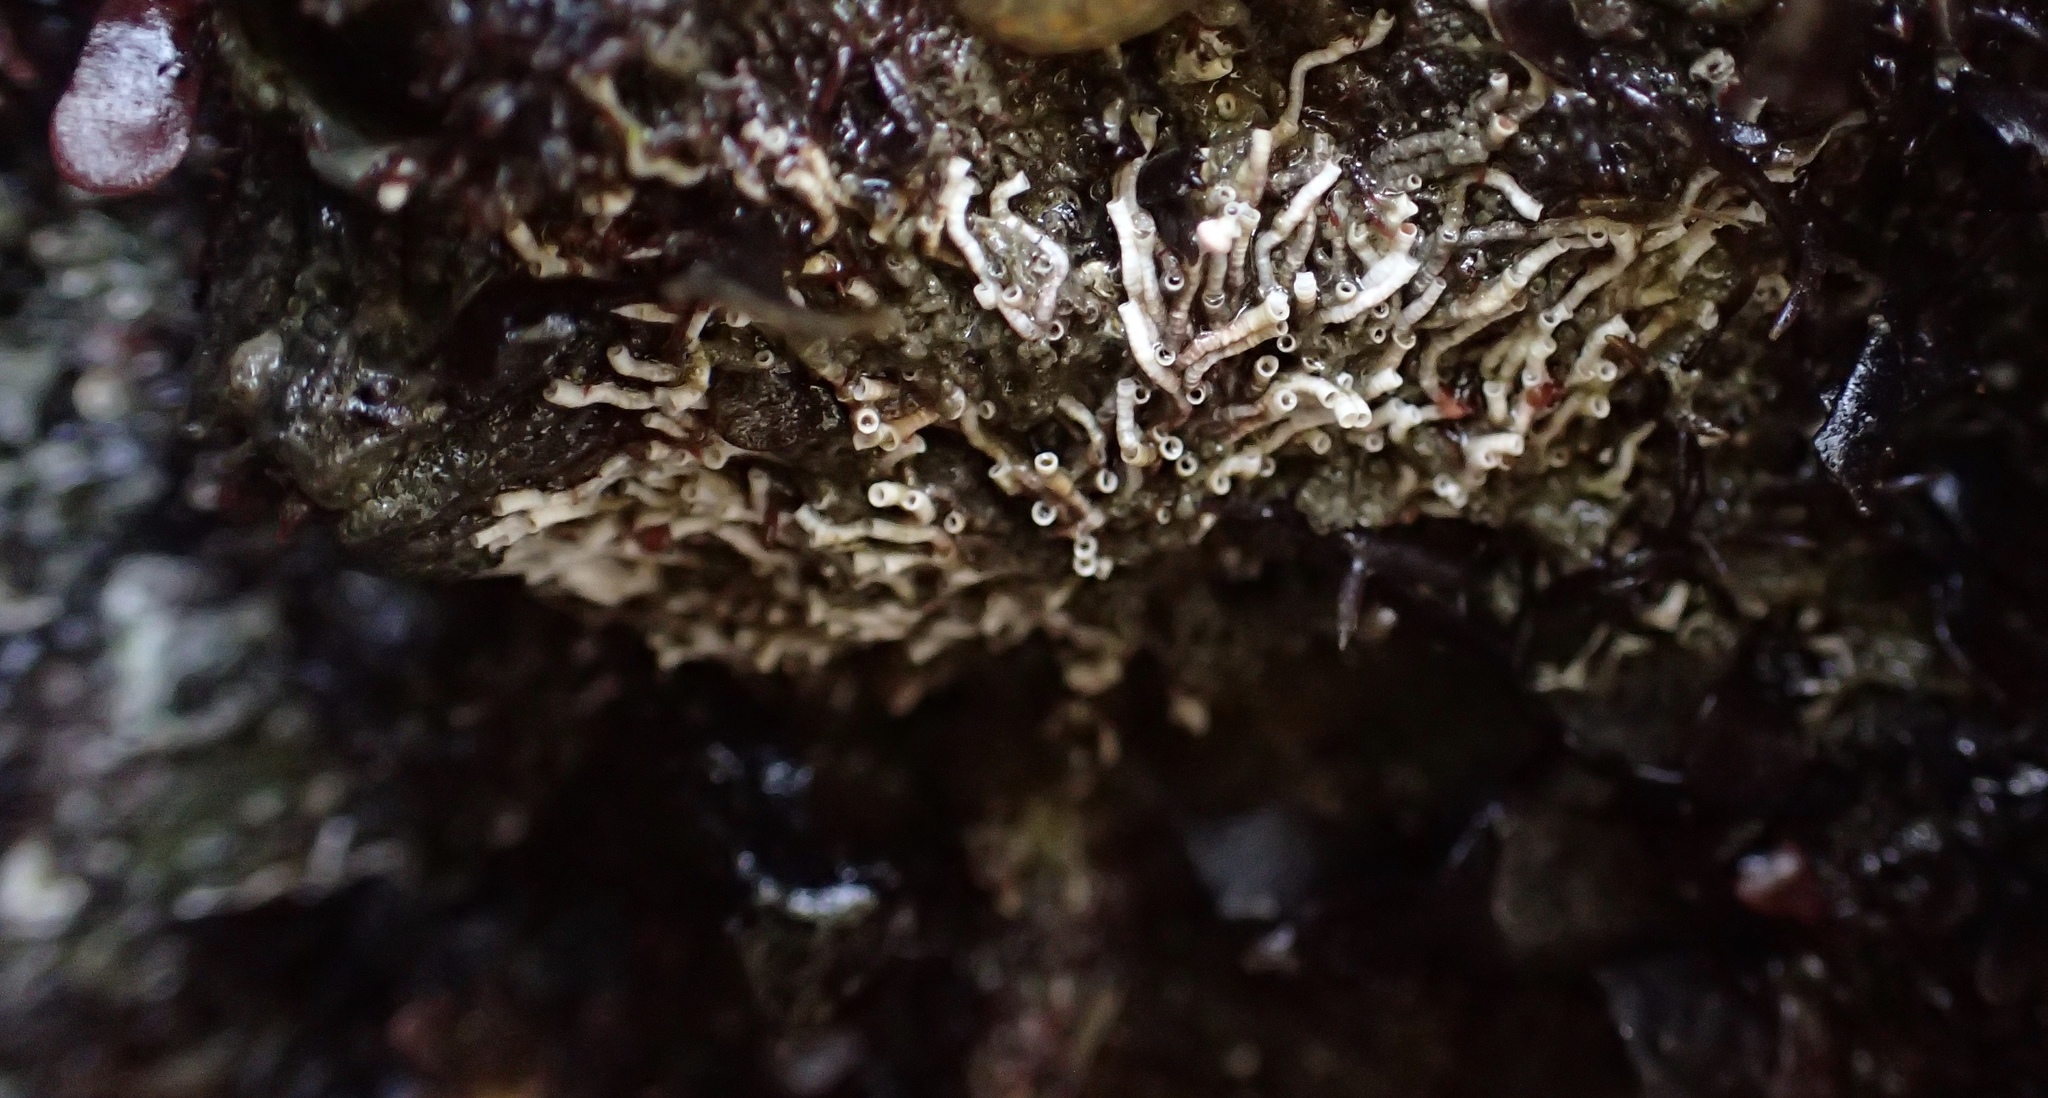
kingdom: Animalia
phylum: Annelida
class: Polychaeta
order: Sabellida
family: Serpulidae
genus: Salmacina
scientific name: Salmacina tribranchiata
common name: Fouling serpulid
